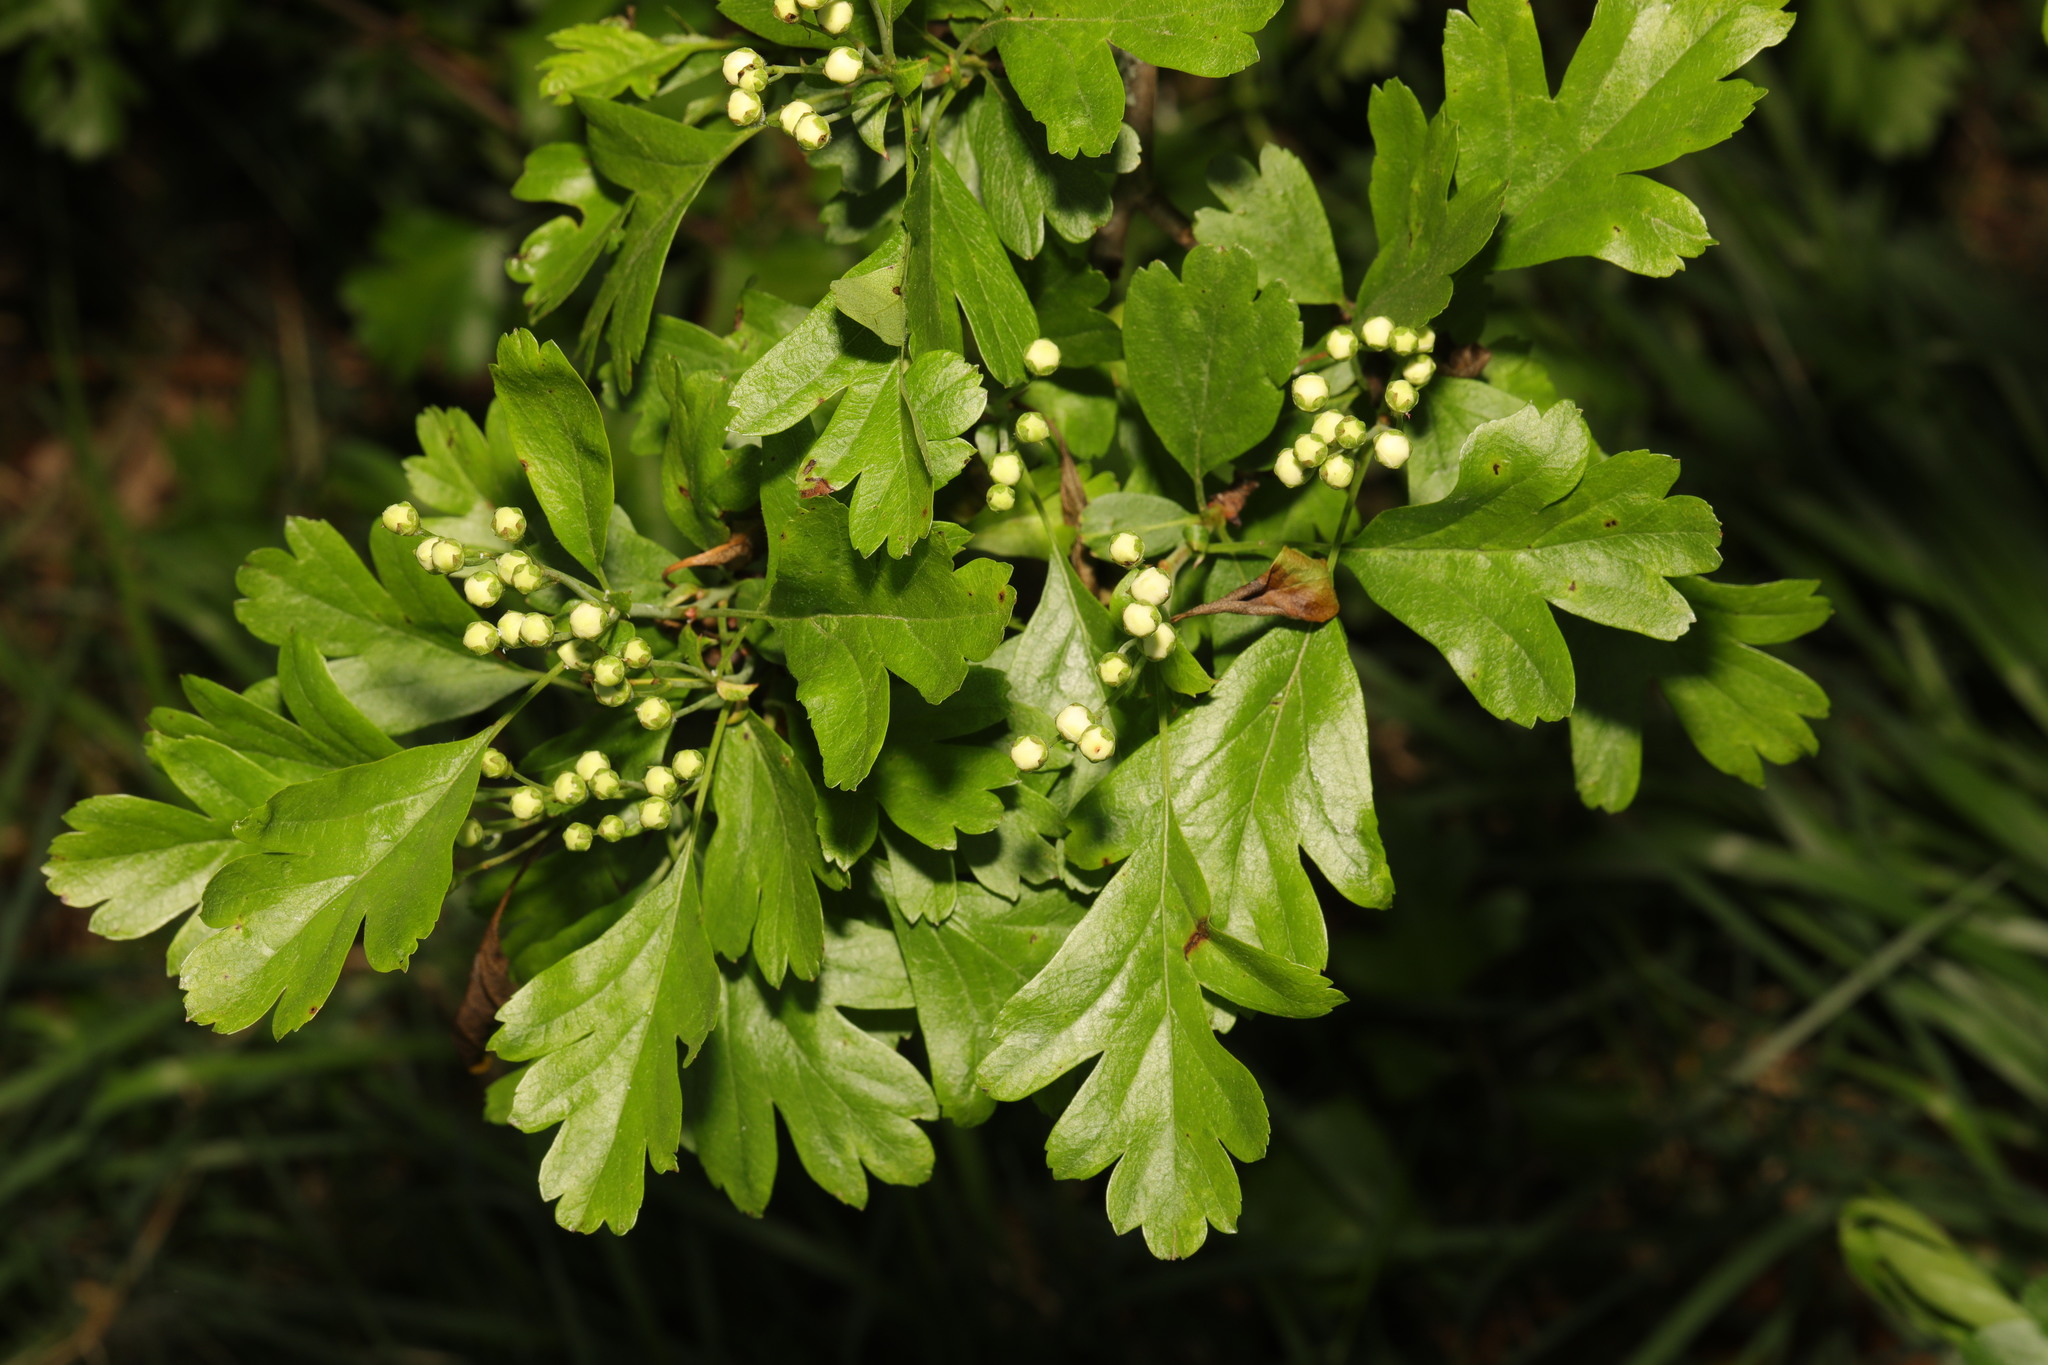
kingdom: Plantae
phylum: Tracheophyta
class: Magnoliopsida
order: Rosales
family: Rosaceae
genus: Crataegus
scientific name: Crataegus monogyna
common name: Hawthorn
